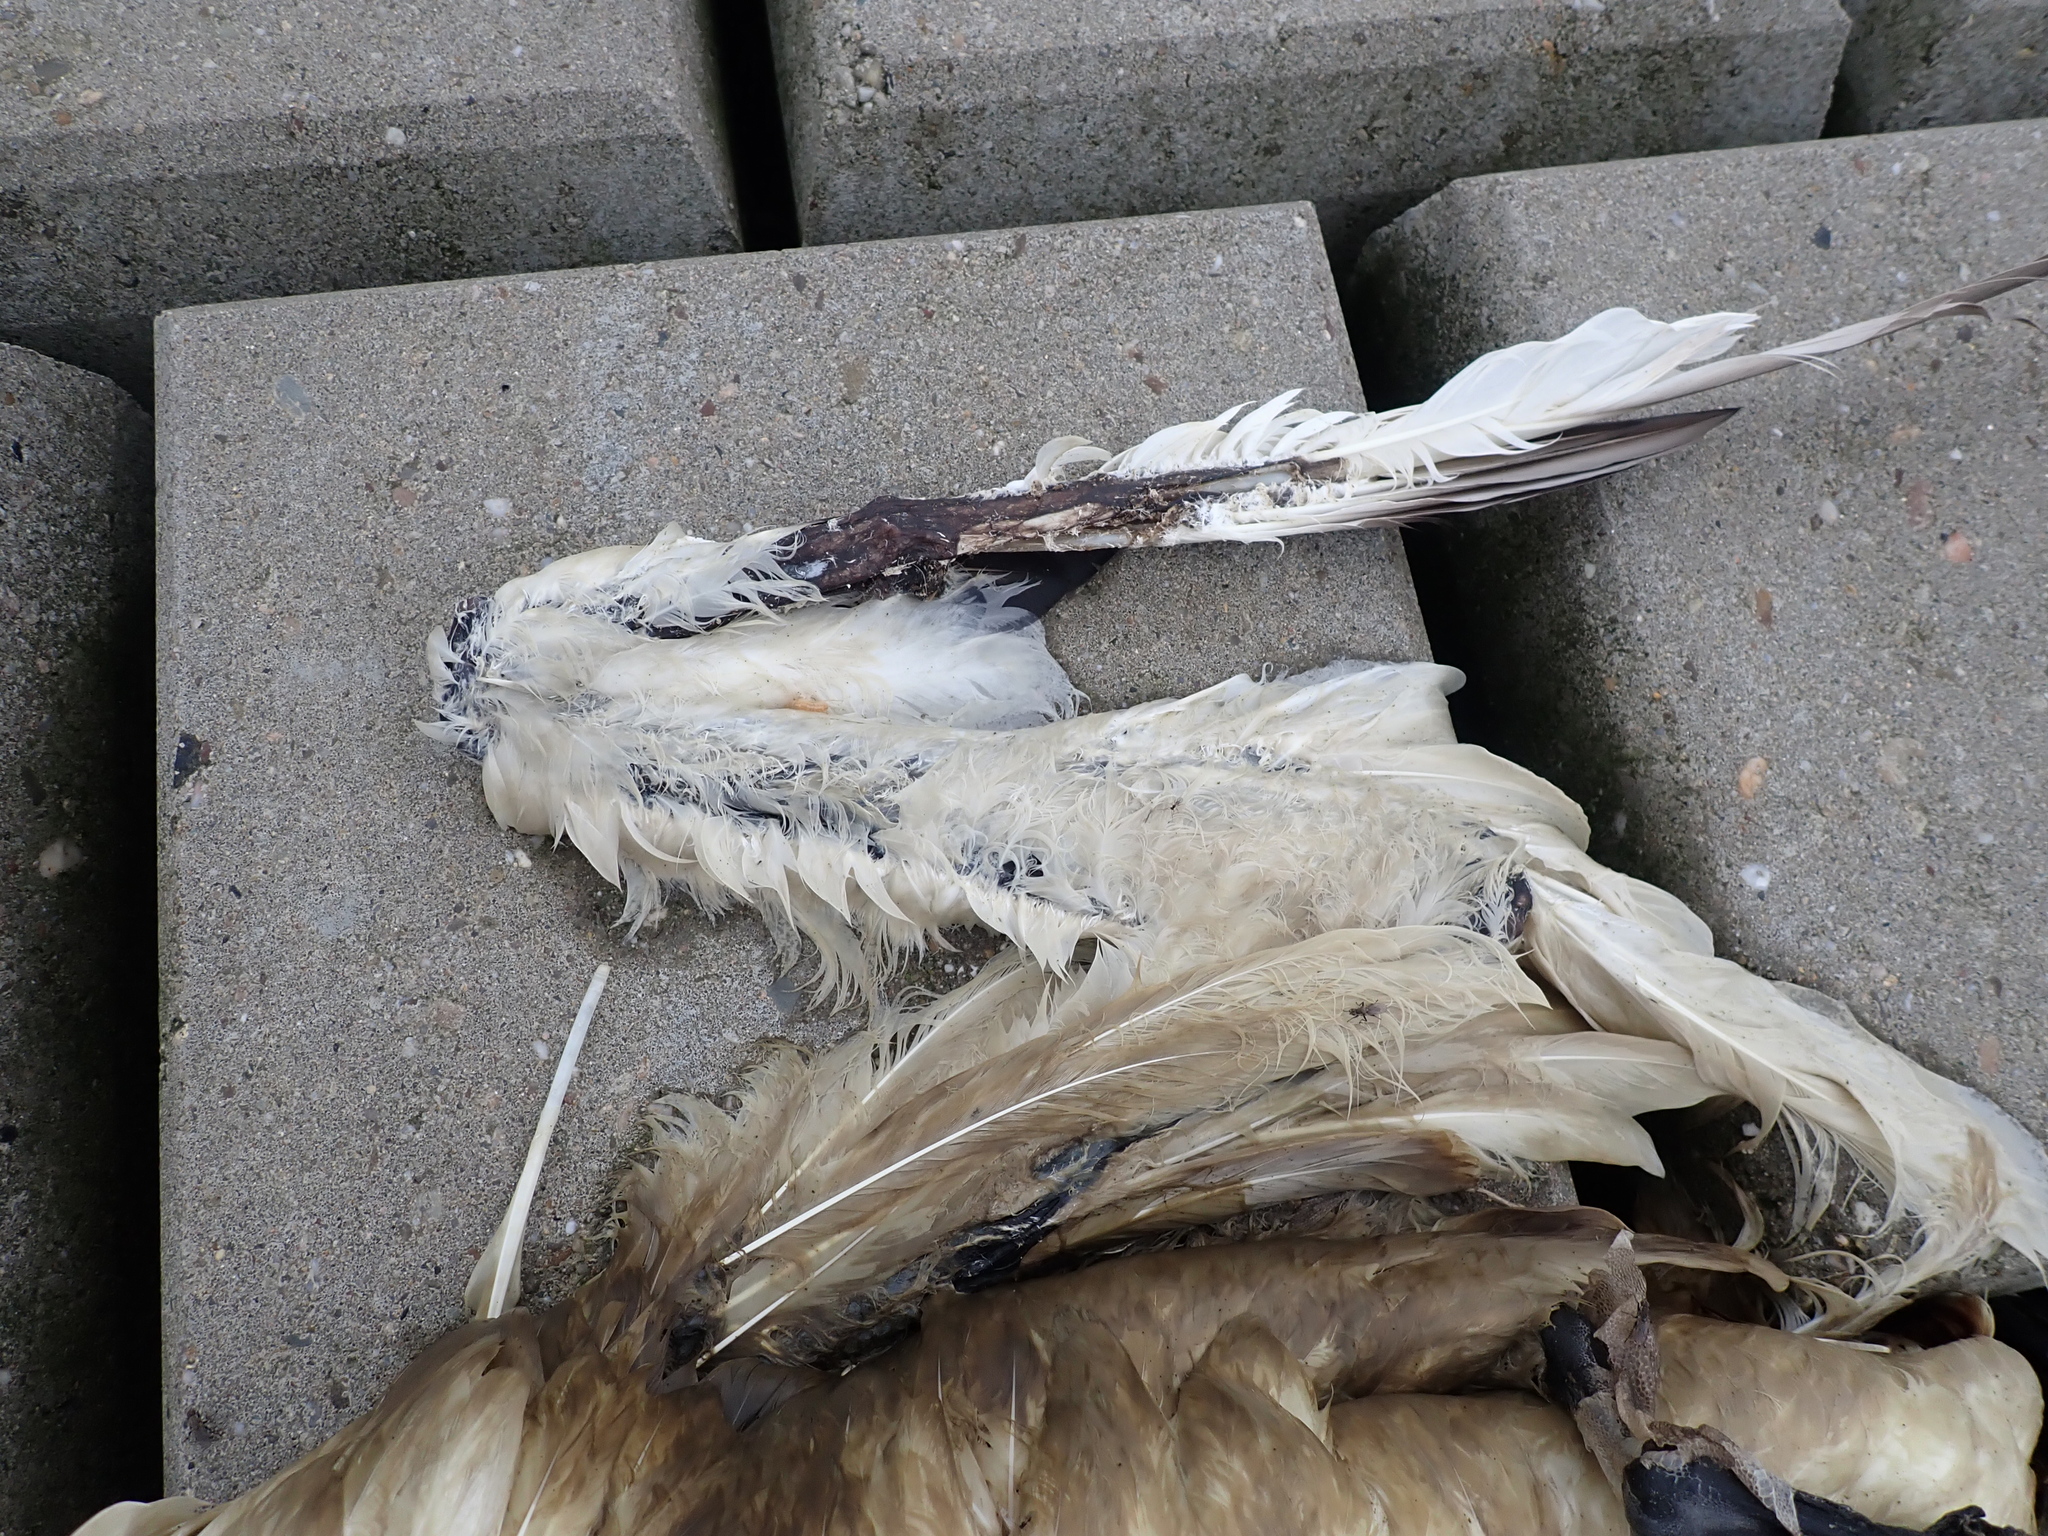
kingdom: Animalia
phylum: Chordata
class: Aves
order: Suliformes
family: Sulidae
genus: Morus
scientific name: Morus bassanus
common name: Northern gannet
